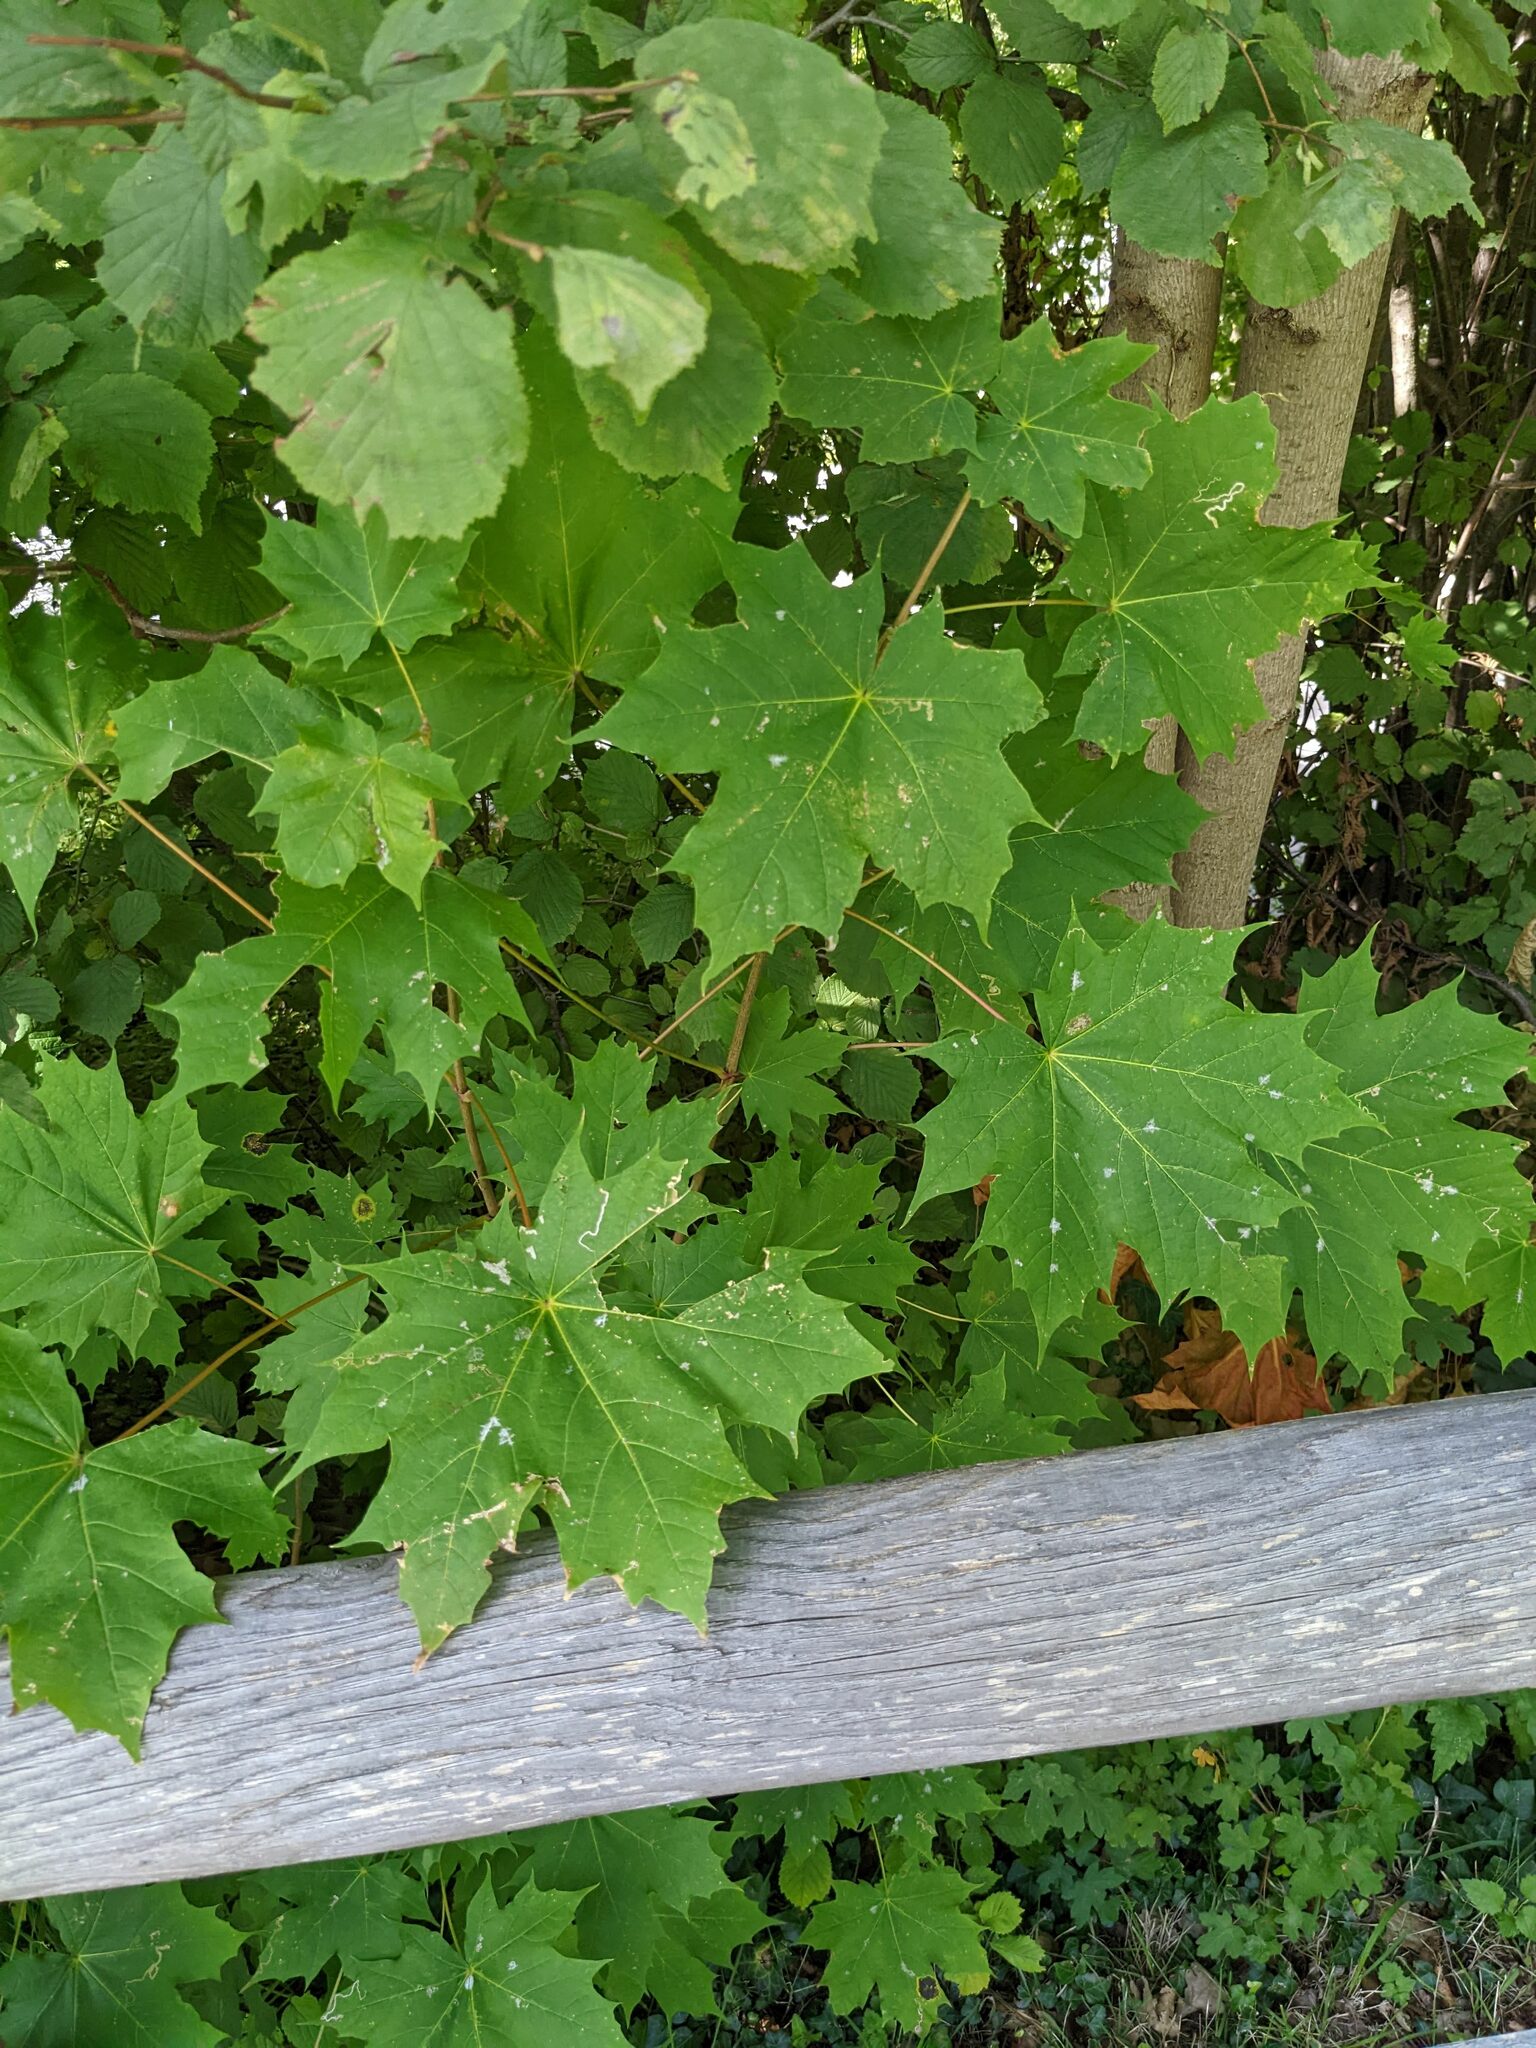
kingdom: Plantae
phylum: Tracheophyta
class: Magnoliopsida
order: Sapindales
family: Sapindaceae
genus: Acer
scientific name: Acer platanoides
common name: Norway maple
